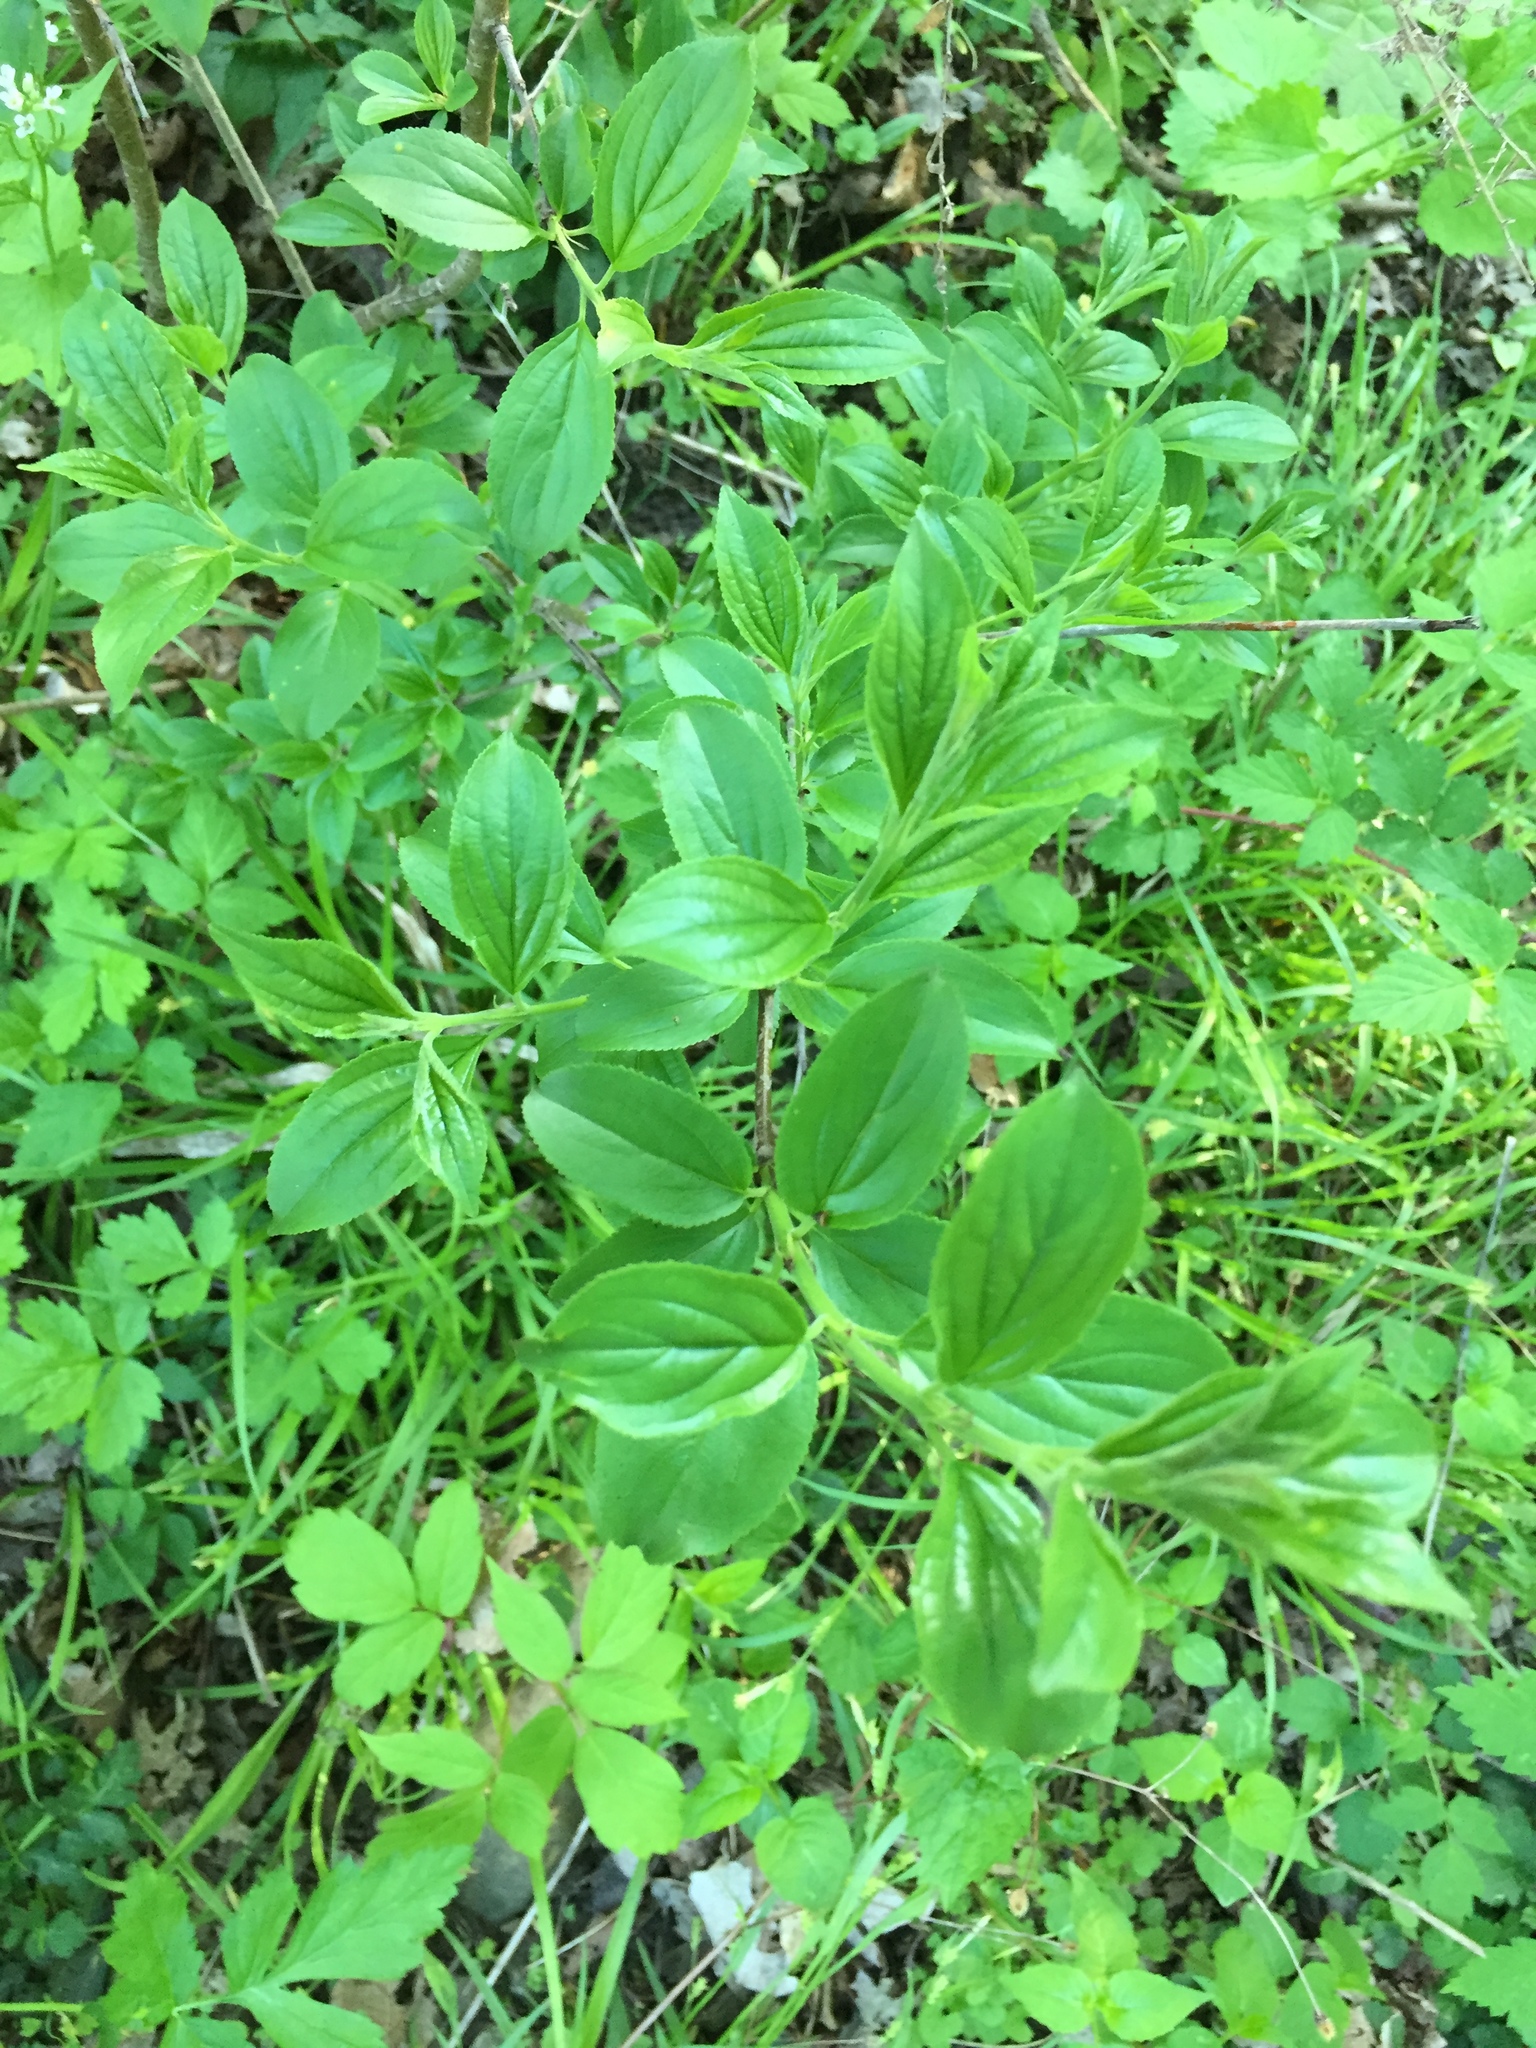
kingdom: Plantae
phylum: Tracheophyta
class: Magnoliopsida
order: Rosales
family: Rhamnaceae
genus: Rhamnus
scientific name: Rhamnus cathartica
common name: Common buckthorn
